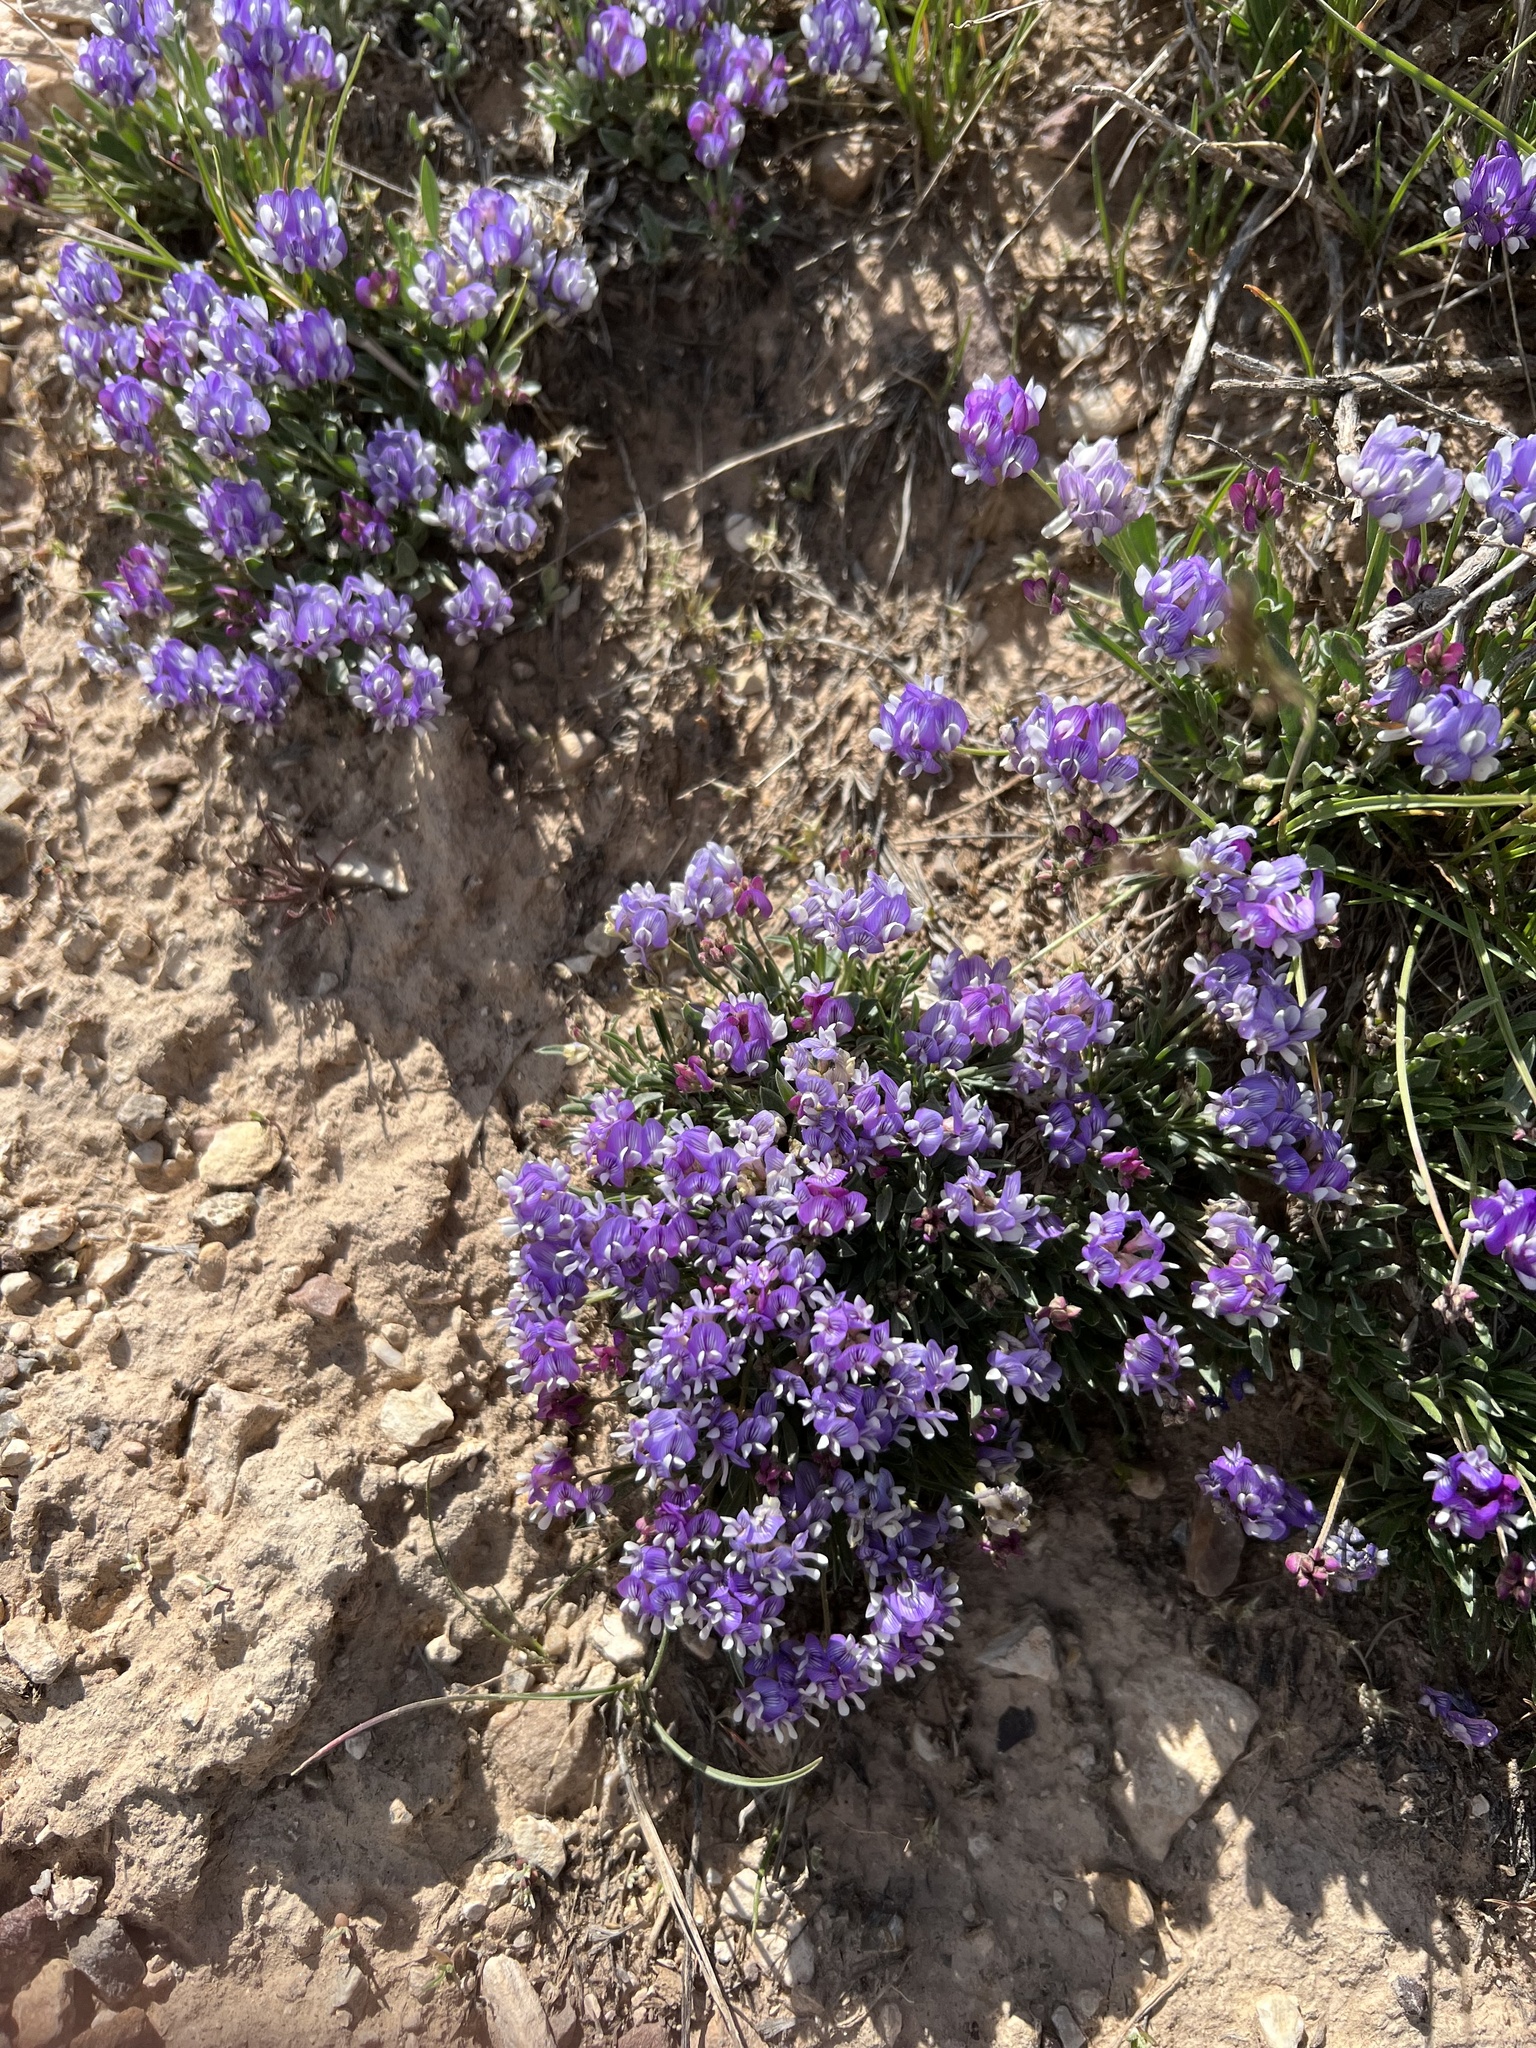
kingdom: Plantae
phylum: Tracheophyta
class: Magnoliopsida
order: Fabales
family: Fabaceae
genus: Astragalus
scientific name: Astragalus spatulatus
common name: Draba milk-vetch
